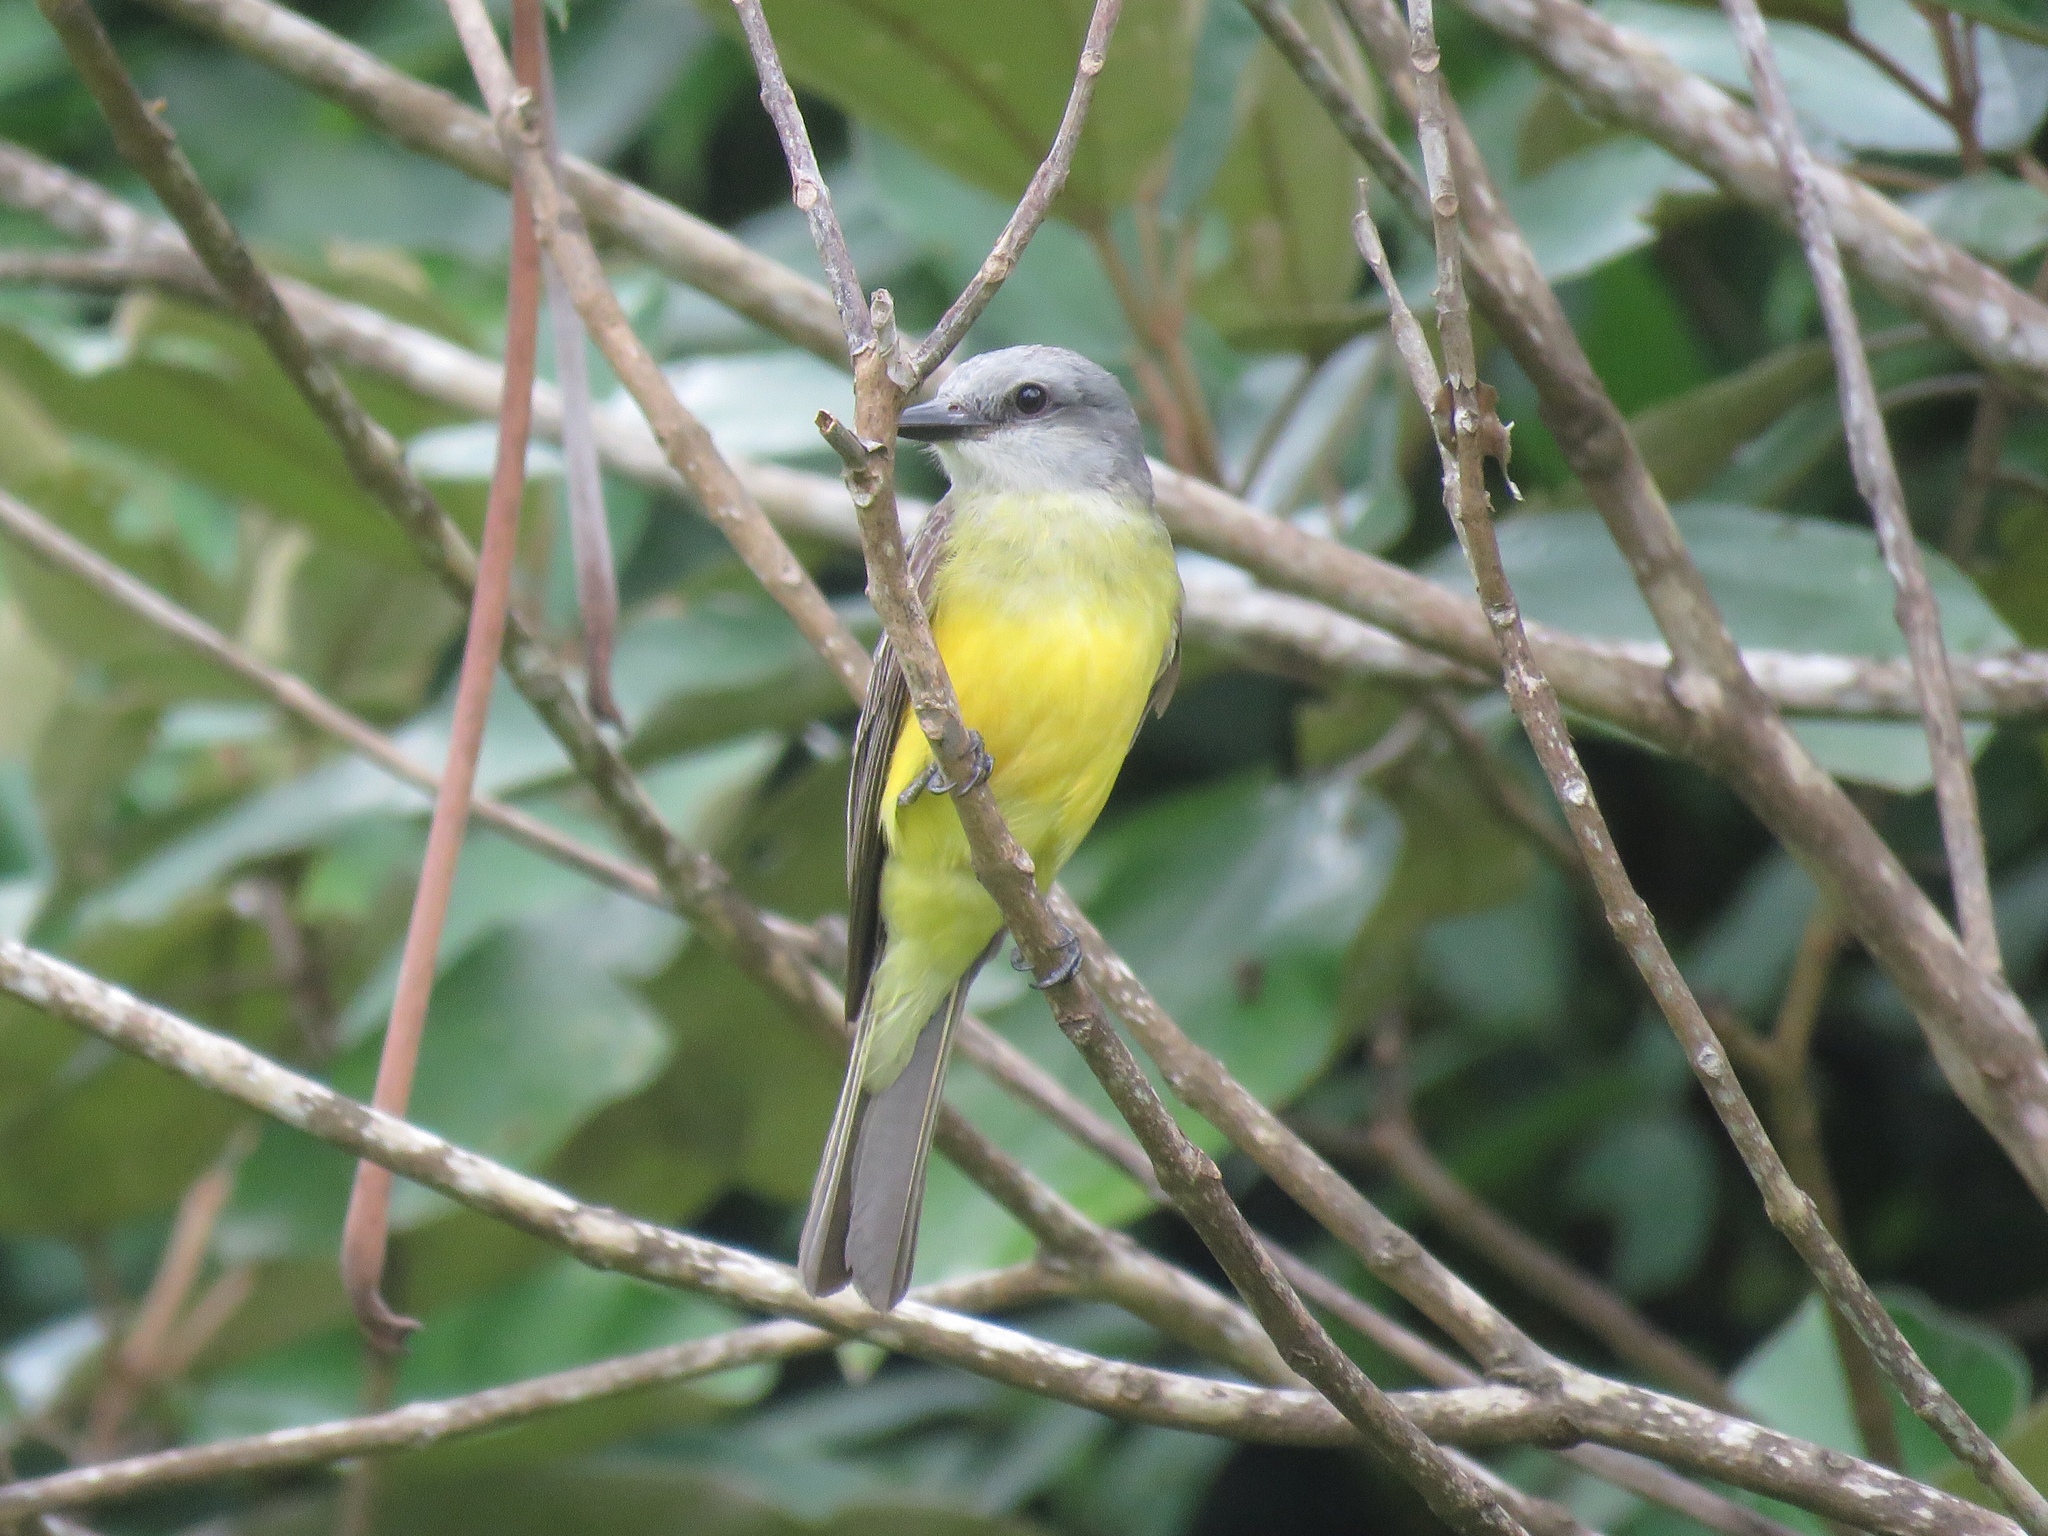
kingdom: Animalia
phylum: Chordata
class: Aves
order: Passeriformes
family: Tyrannidae
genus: Tyrannus
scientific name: Tyrannus melancholicus
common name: Tropical kingbird
